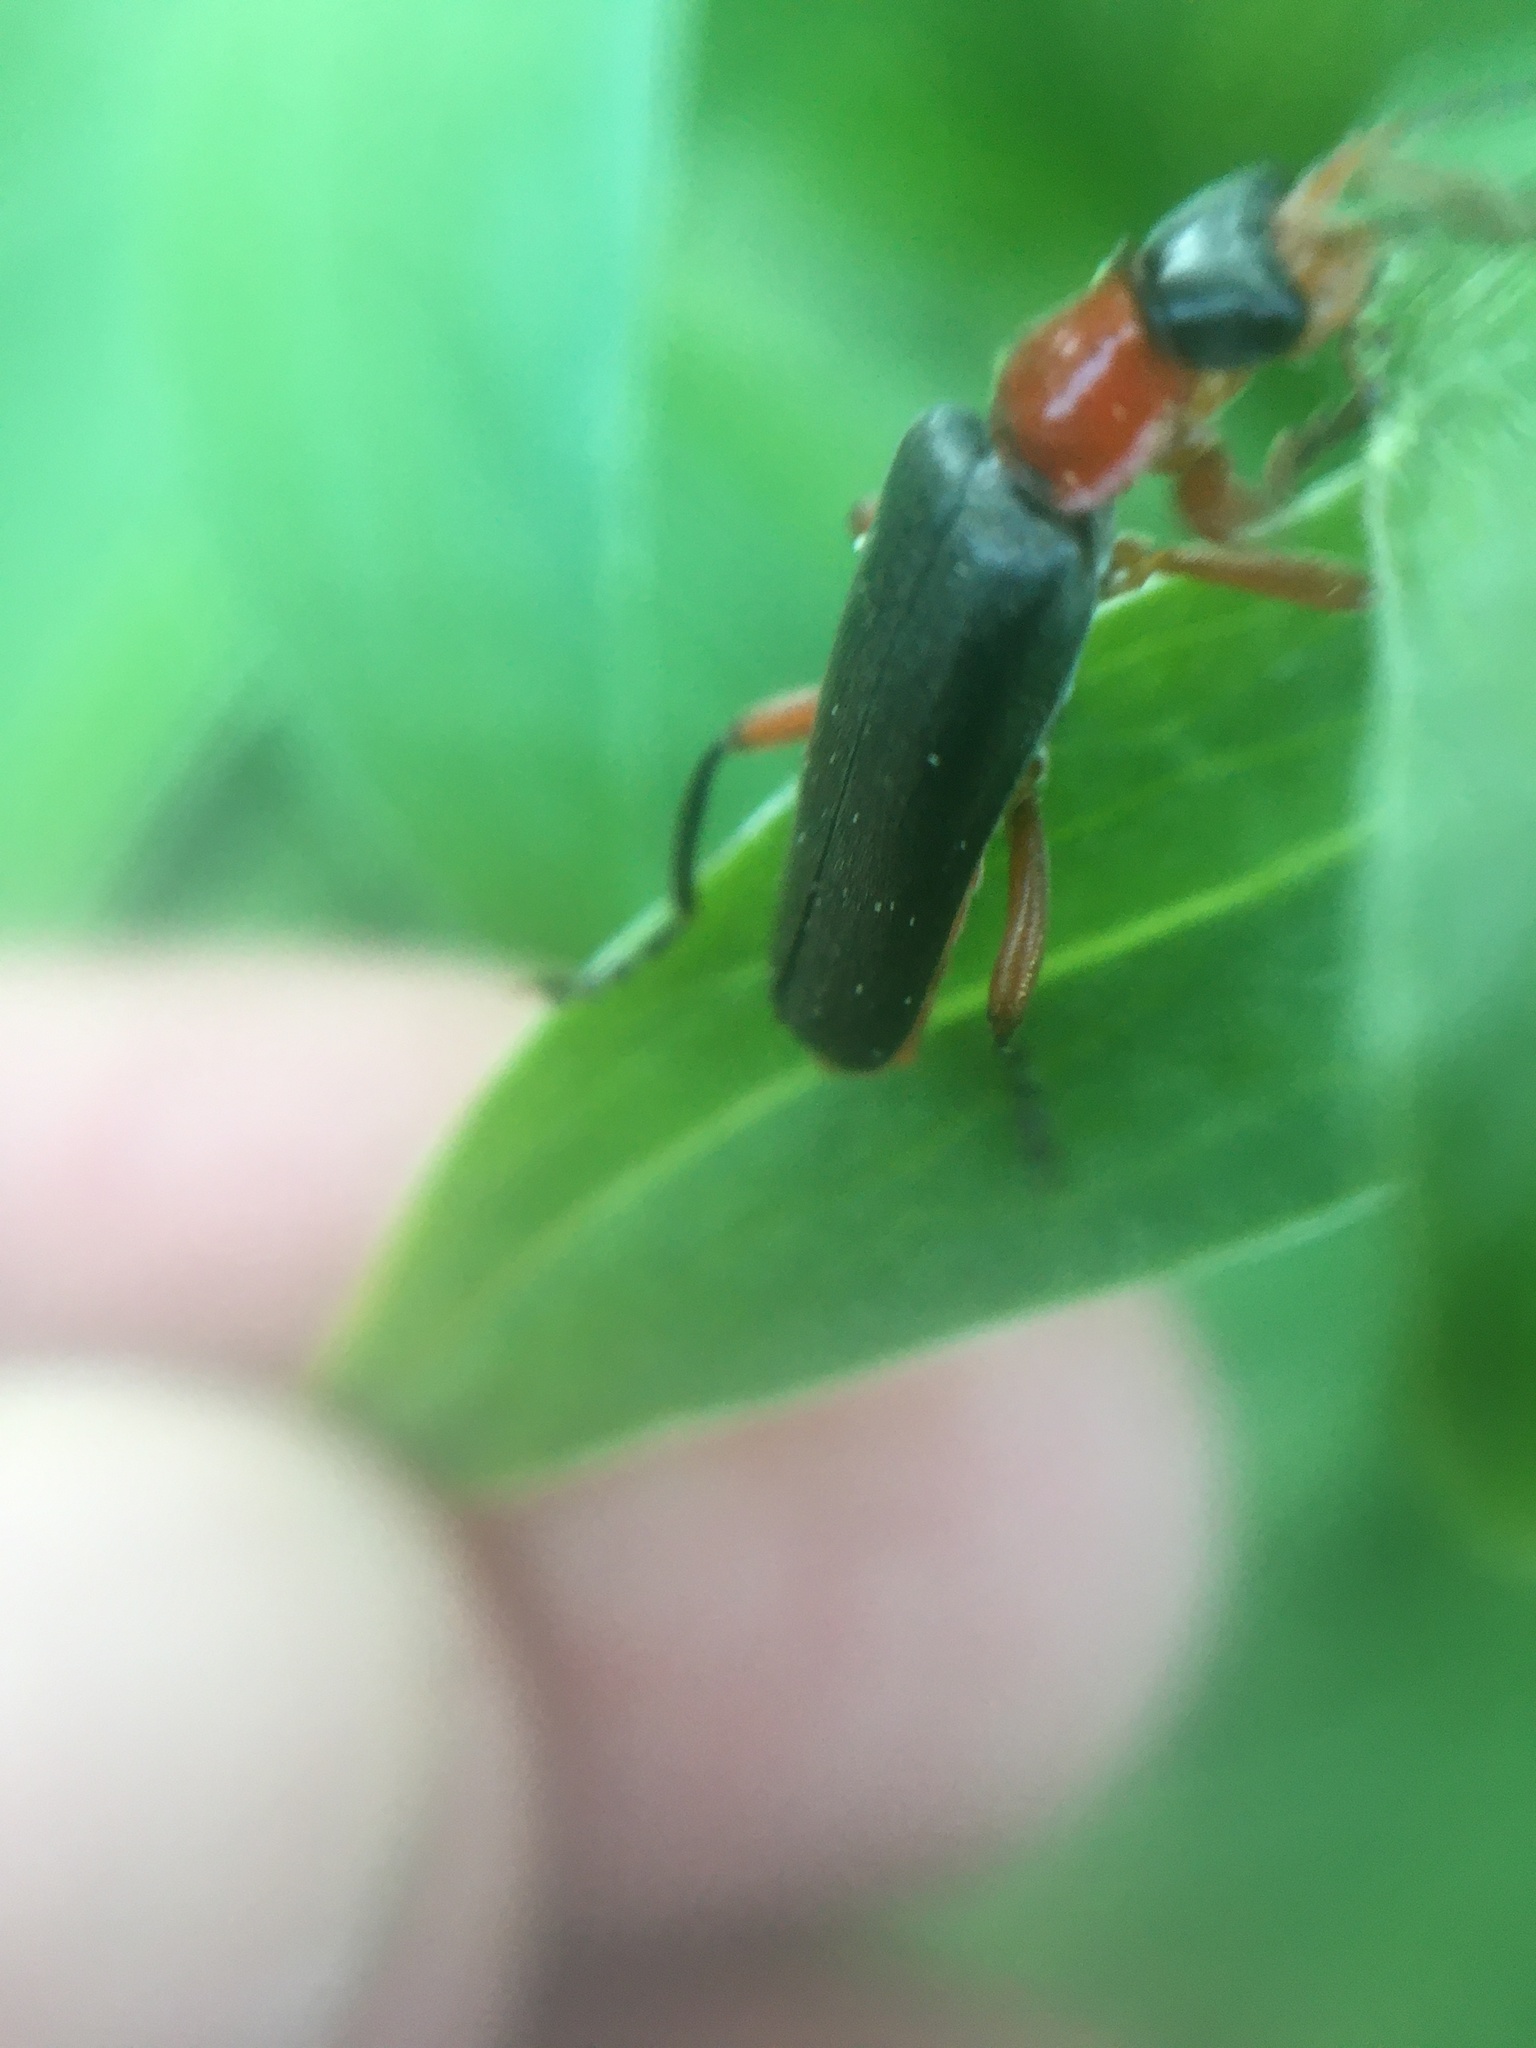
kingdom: Animalia
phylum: Arthropoda
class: Insecta
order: Coleoptera
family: Cantharidae
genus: Cantharis
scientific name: Cantharis pellucida
